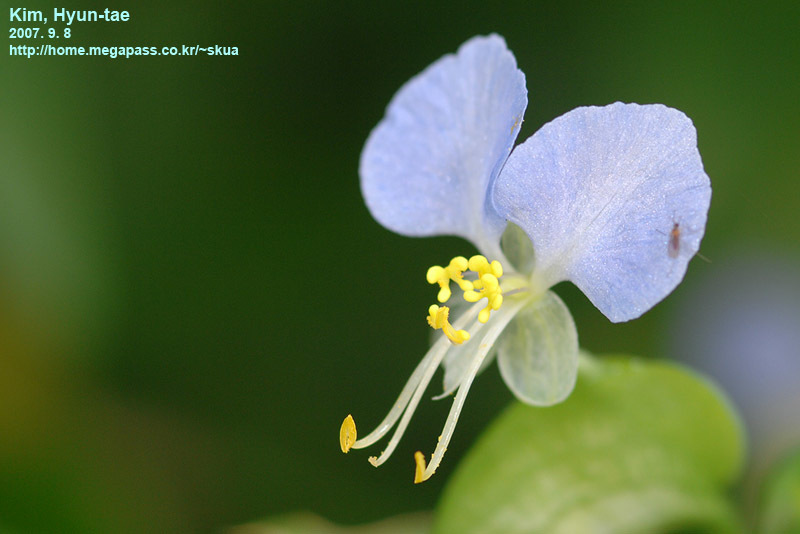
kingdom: Plantae
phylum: Tracheophyta
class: Liliopsida
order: Commelinales
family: Commelinaceae
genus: Commelina
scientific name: Commelina communis
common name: Asiatic dayflower
